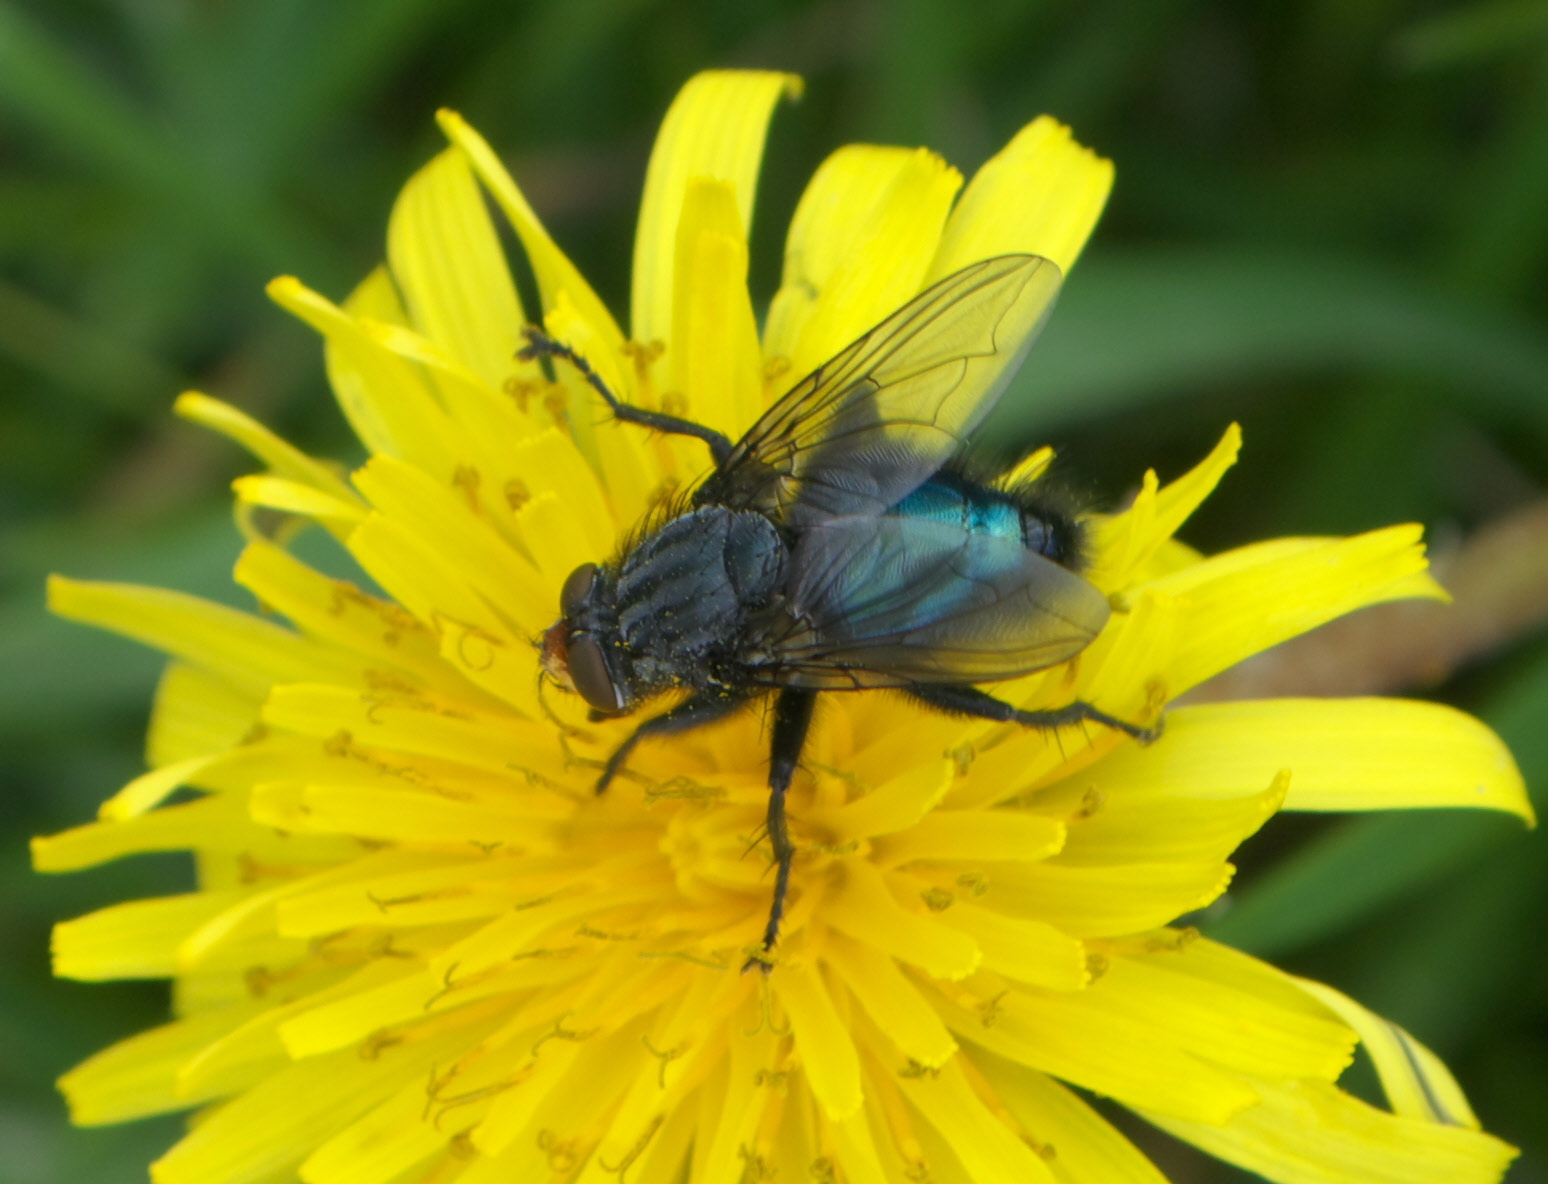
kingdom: Animalia
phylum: Arthropoda
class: Insecta
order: Diptera
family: Calliphoridae
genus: Cynomya
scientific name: Cynomya mortuorum
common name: Bluebottle blow fly
